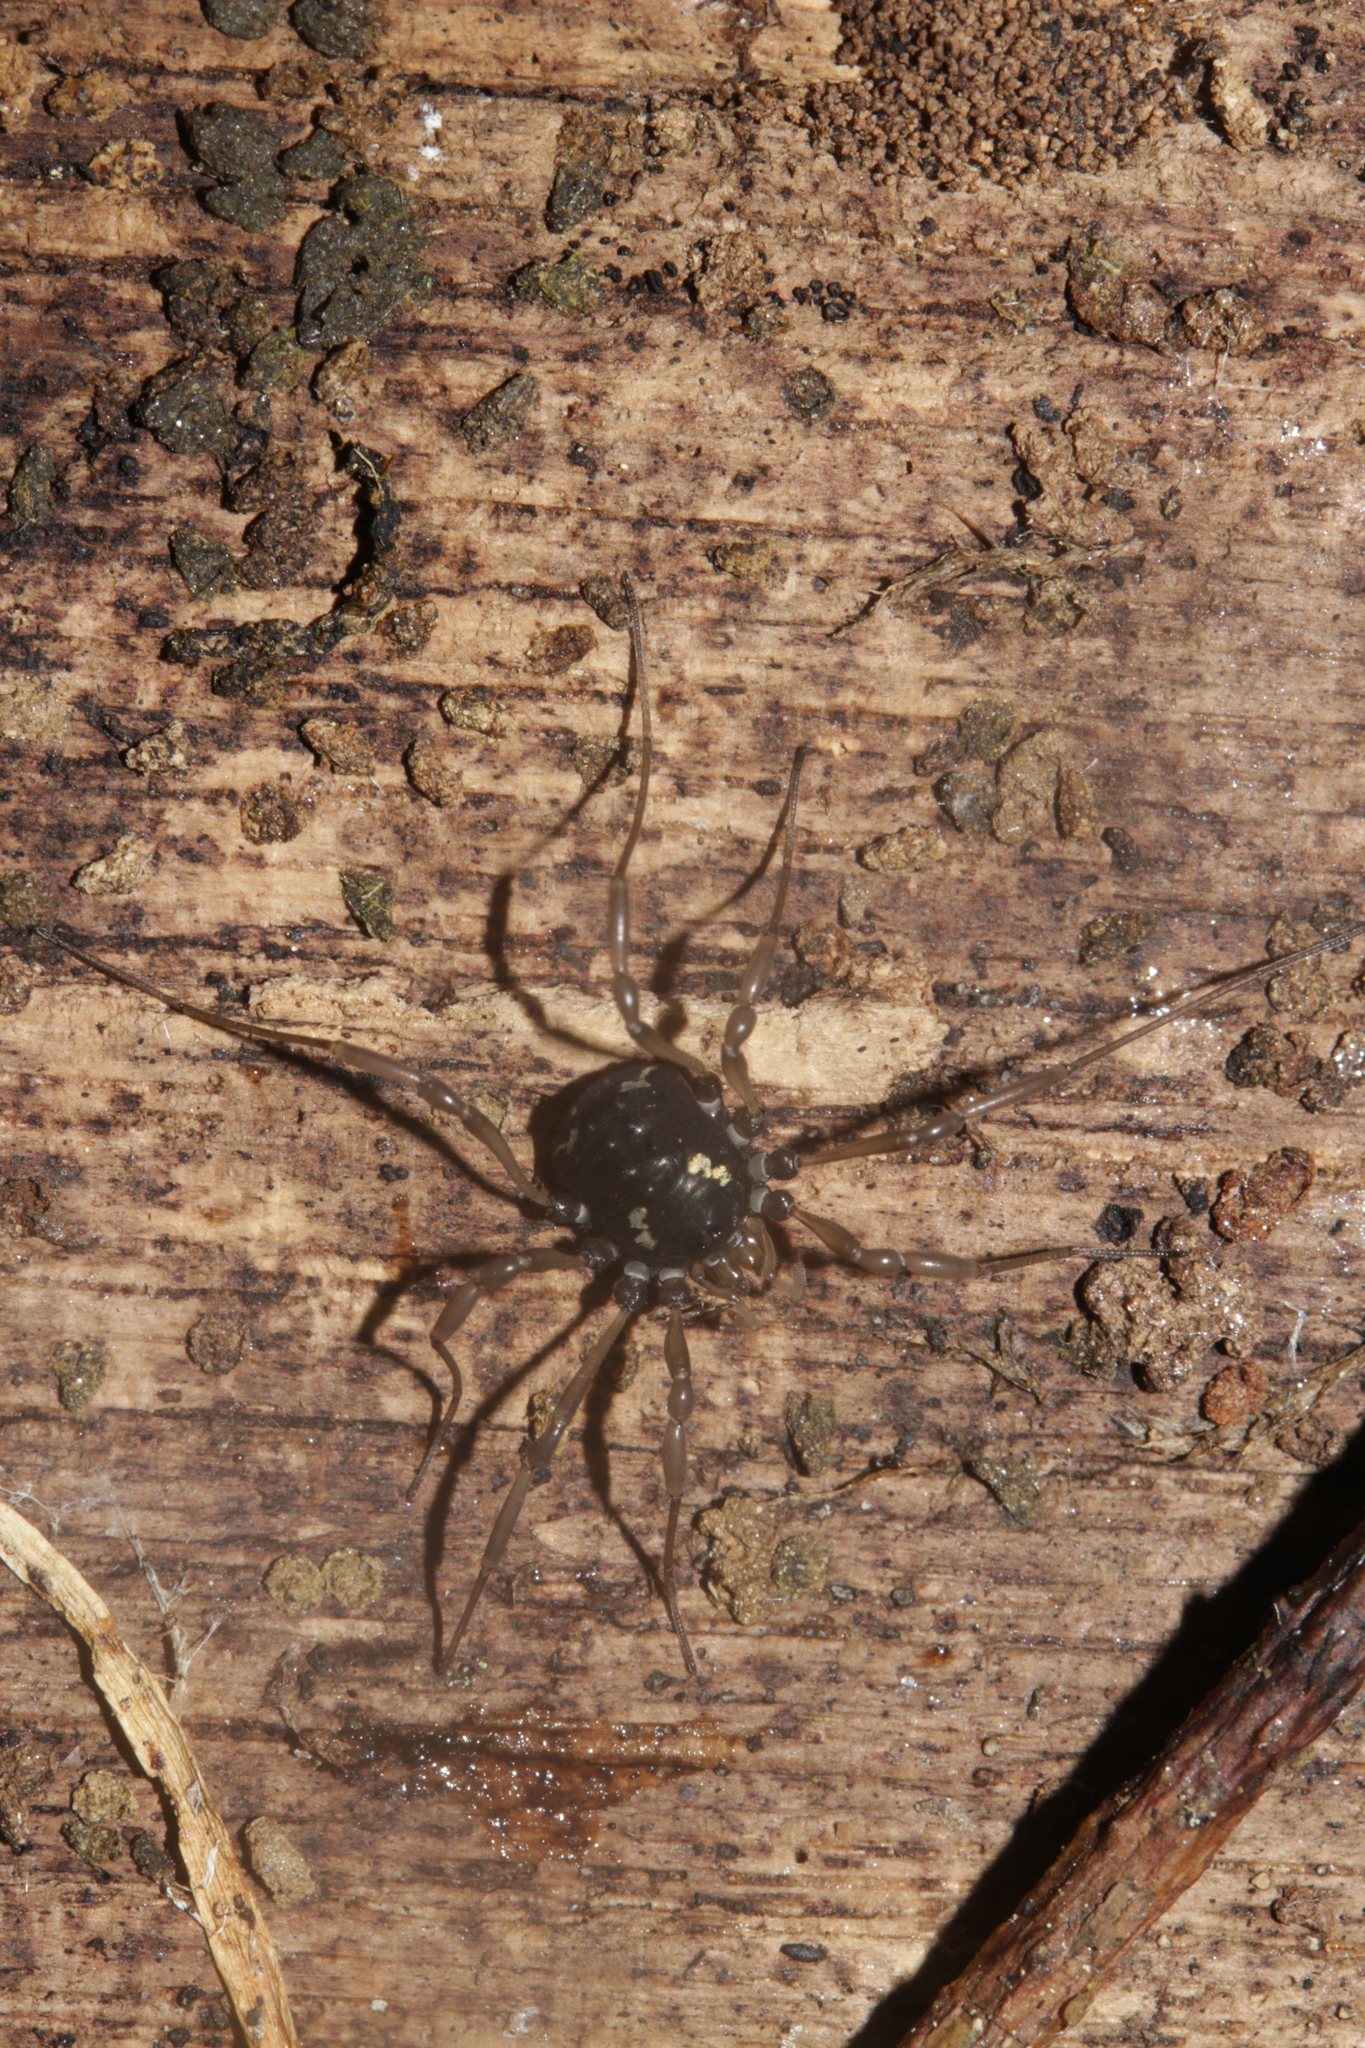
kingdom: Animalia
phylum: Arthropoda
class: Arachnida
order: Opiliones
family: Nemastomatidae
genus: Paranemastoma
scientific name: Paranemastoma quadripunctatum
